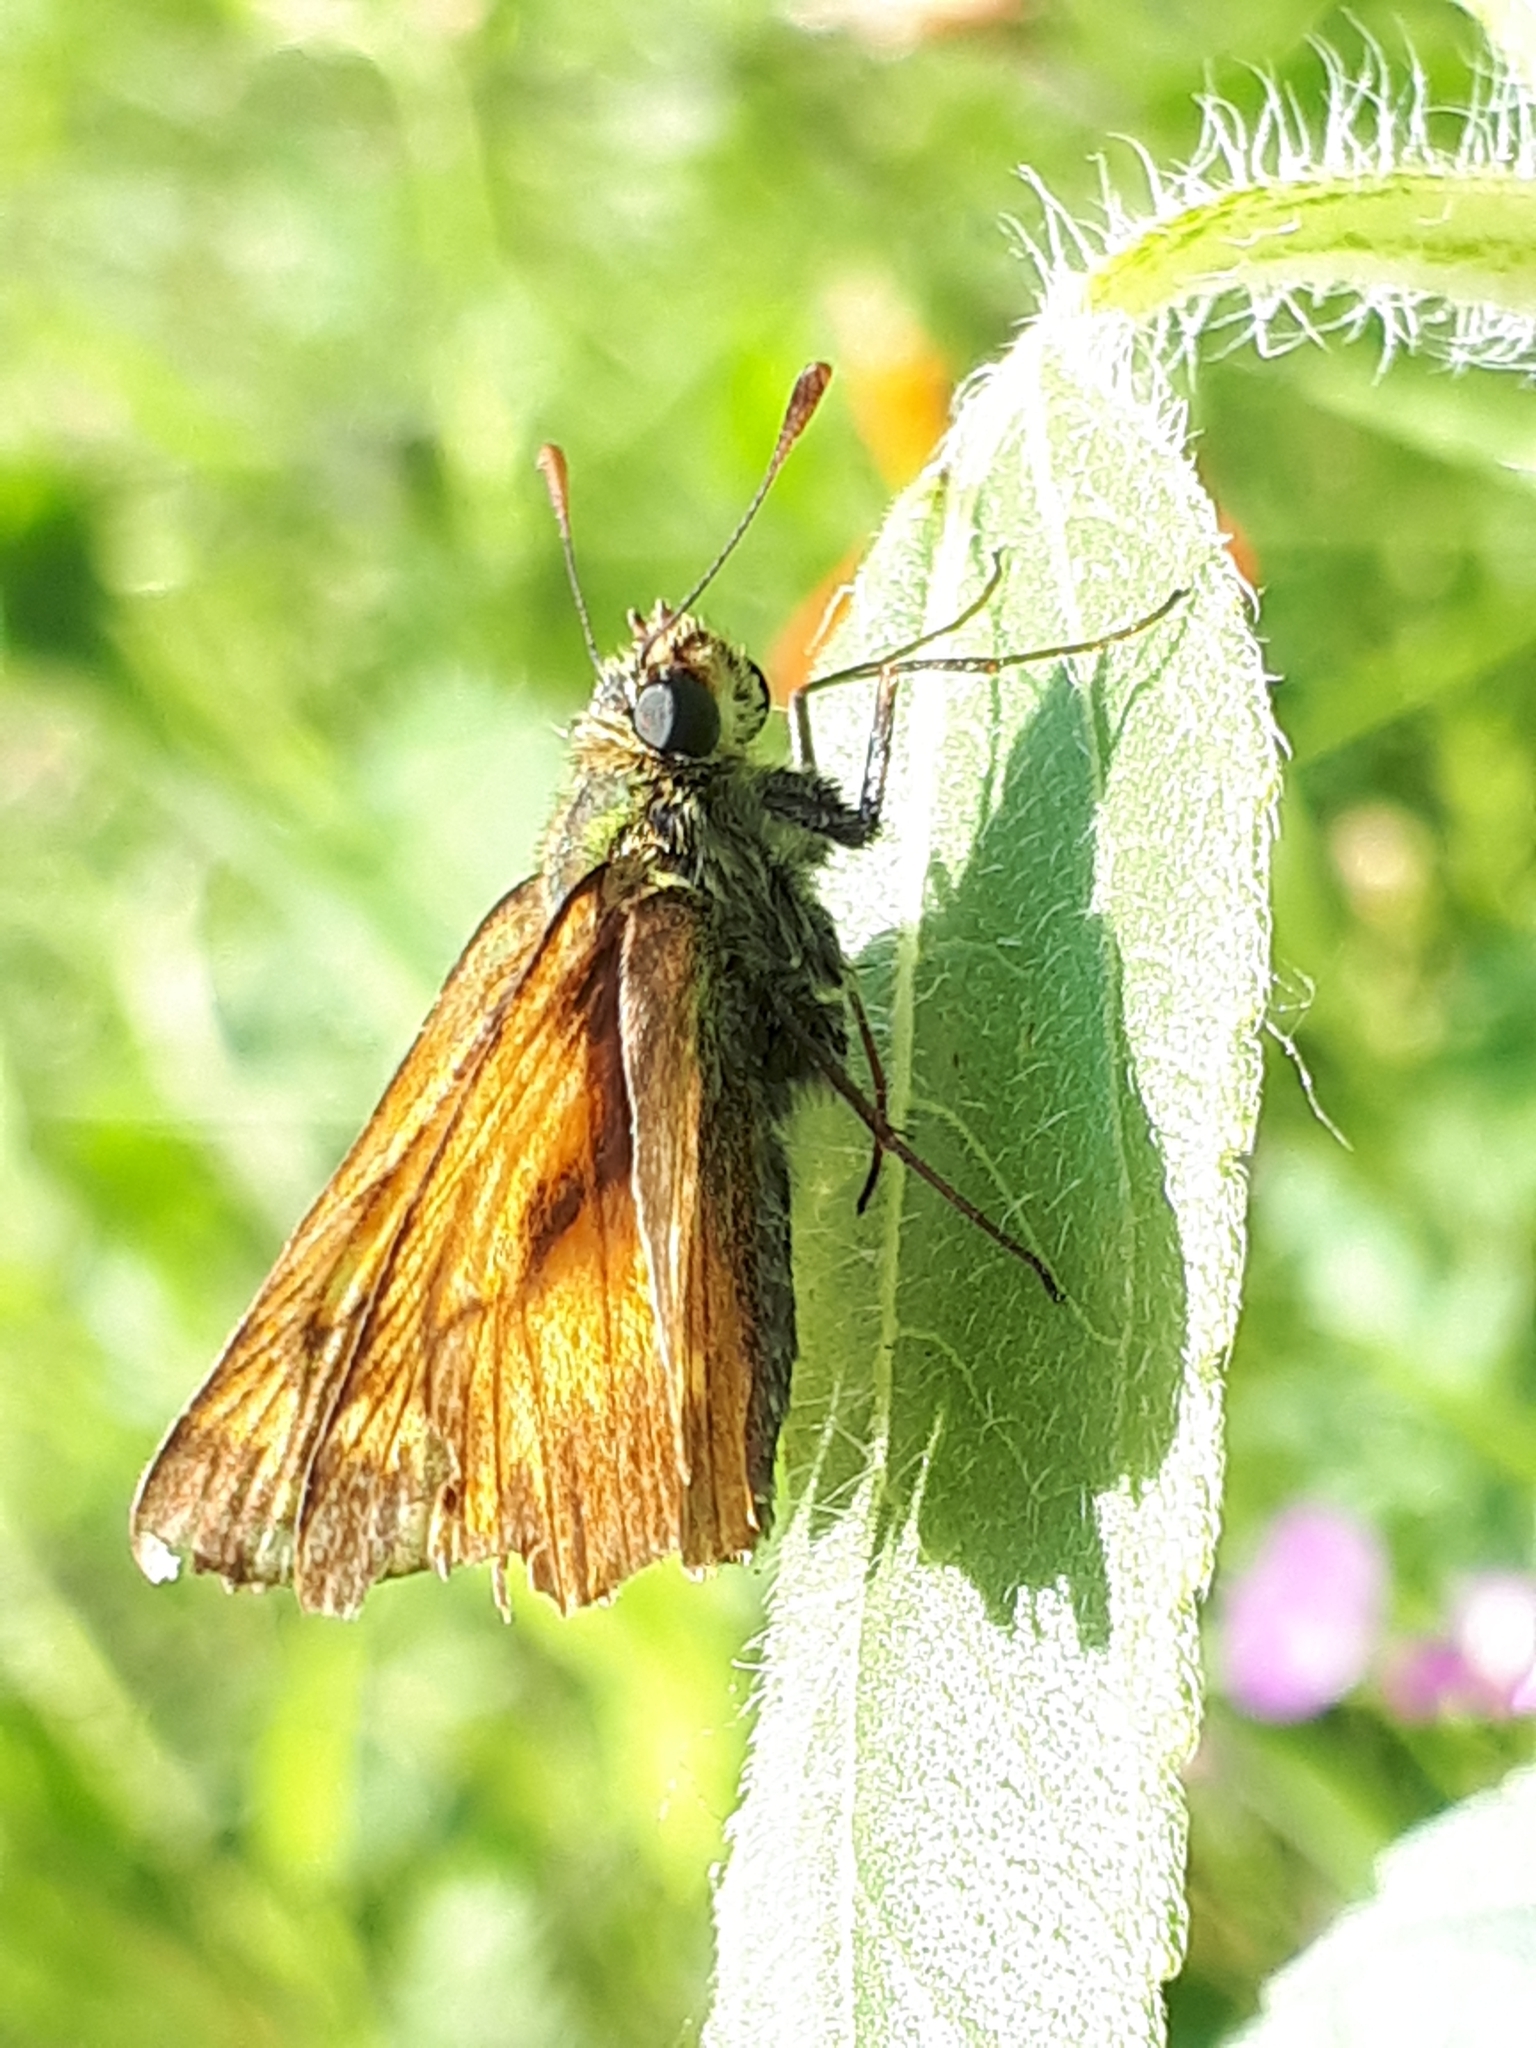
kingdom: Animalia
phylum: Arthropoda
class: Insecta
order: Lepidoptera
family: Hesperiidae
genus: Ochlodes
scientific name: Ochlodes venata
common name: Large skipper
